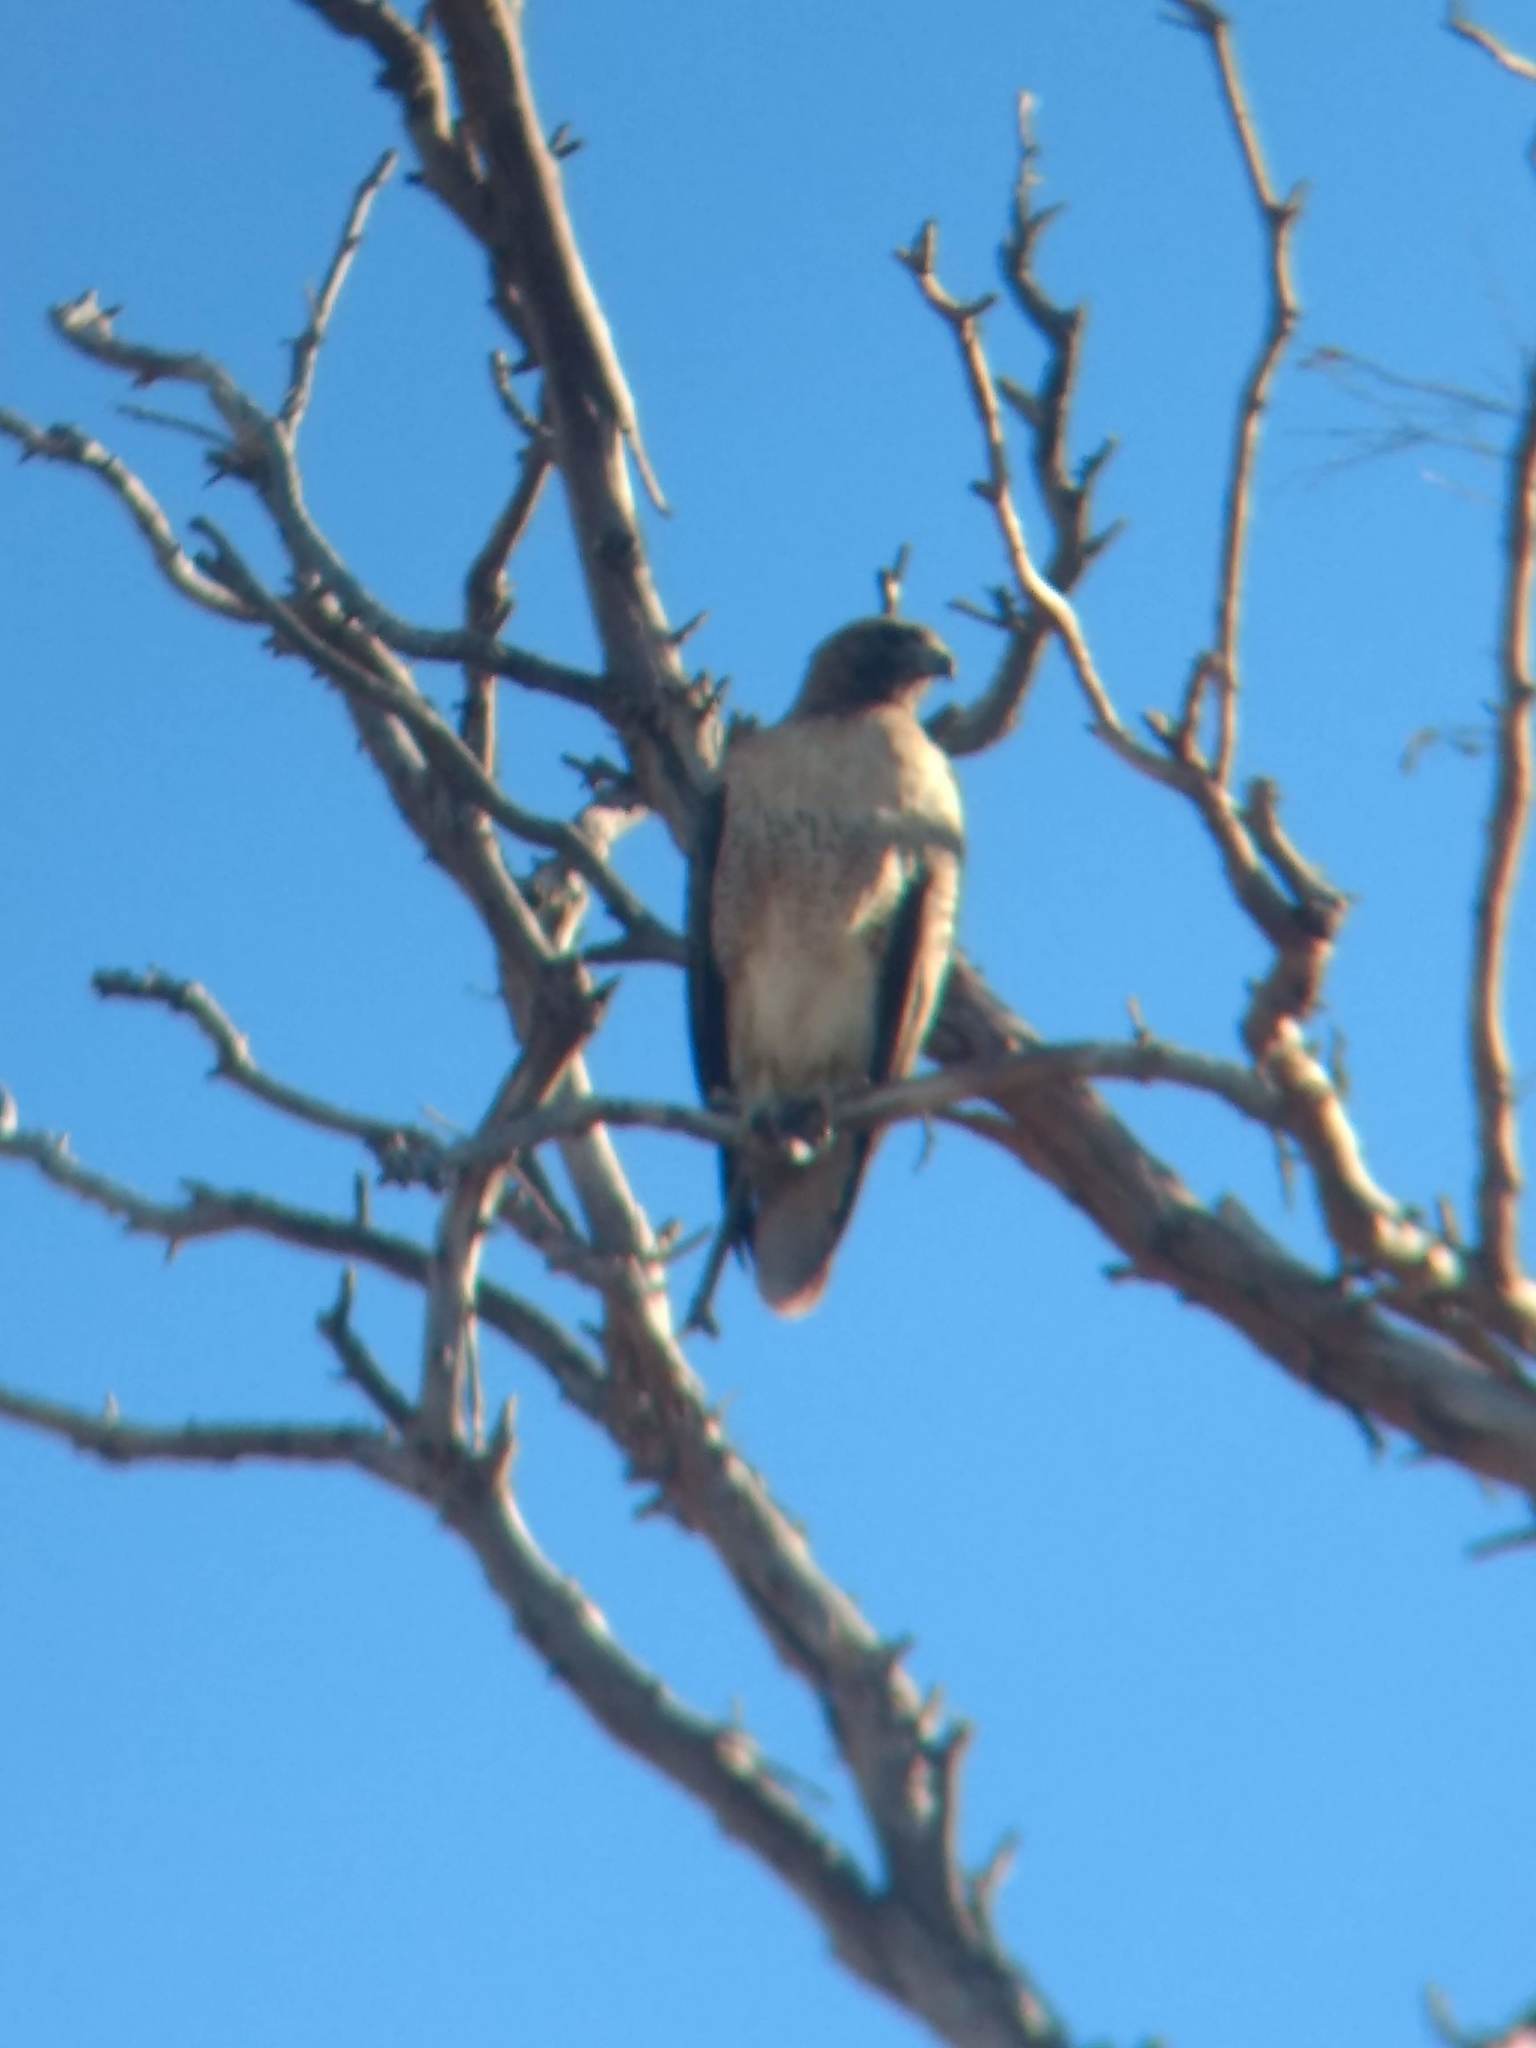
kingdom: Animalia
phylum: Chordata
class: Aves
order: Accipitriformes
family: Accipitridae
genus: Buteo
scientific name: Buteo jamaicensis
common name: Red-tailed hawk
